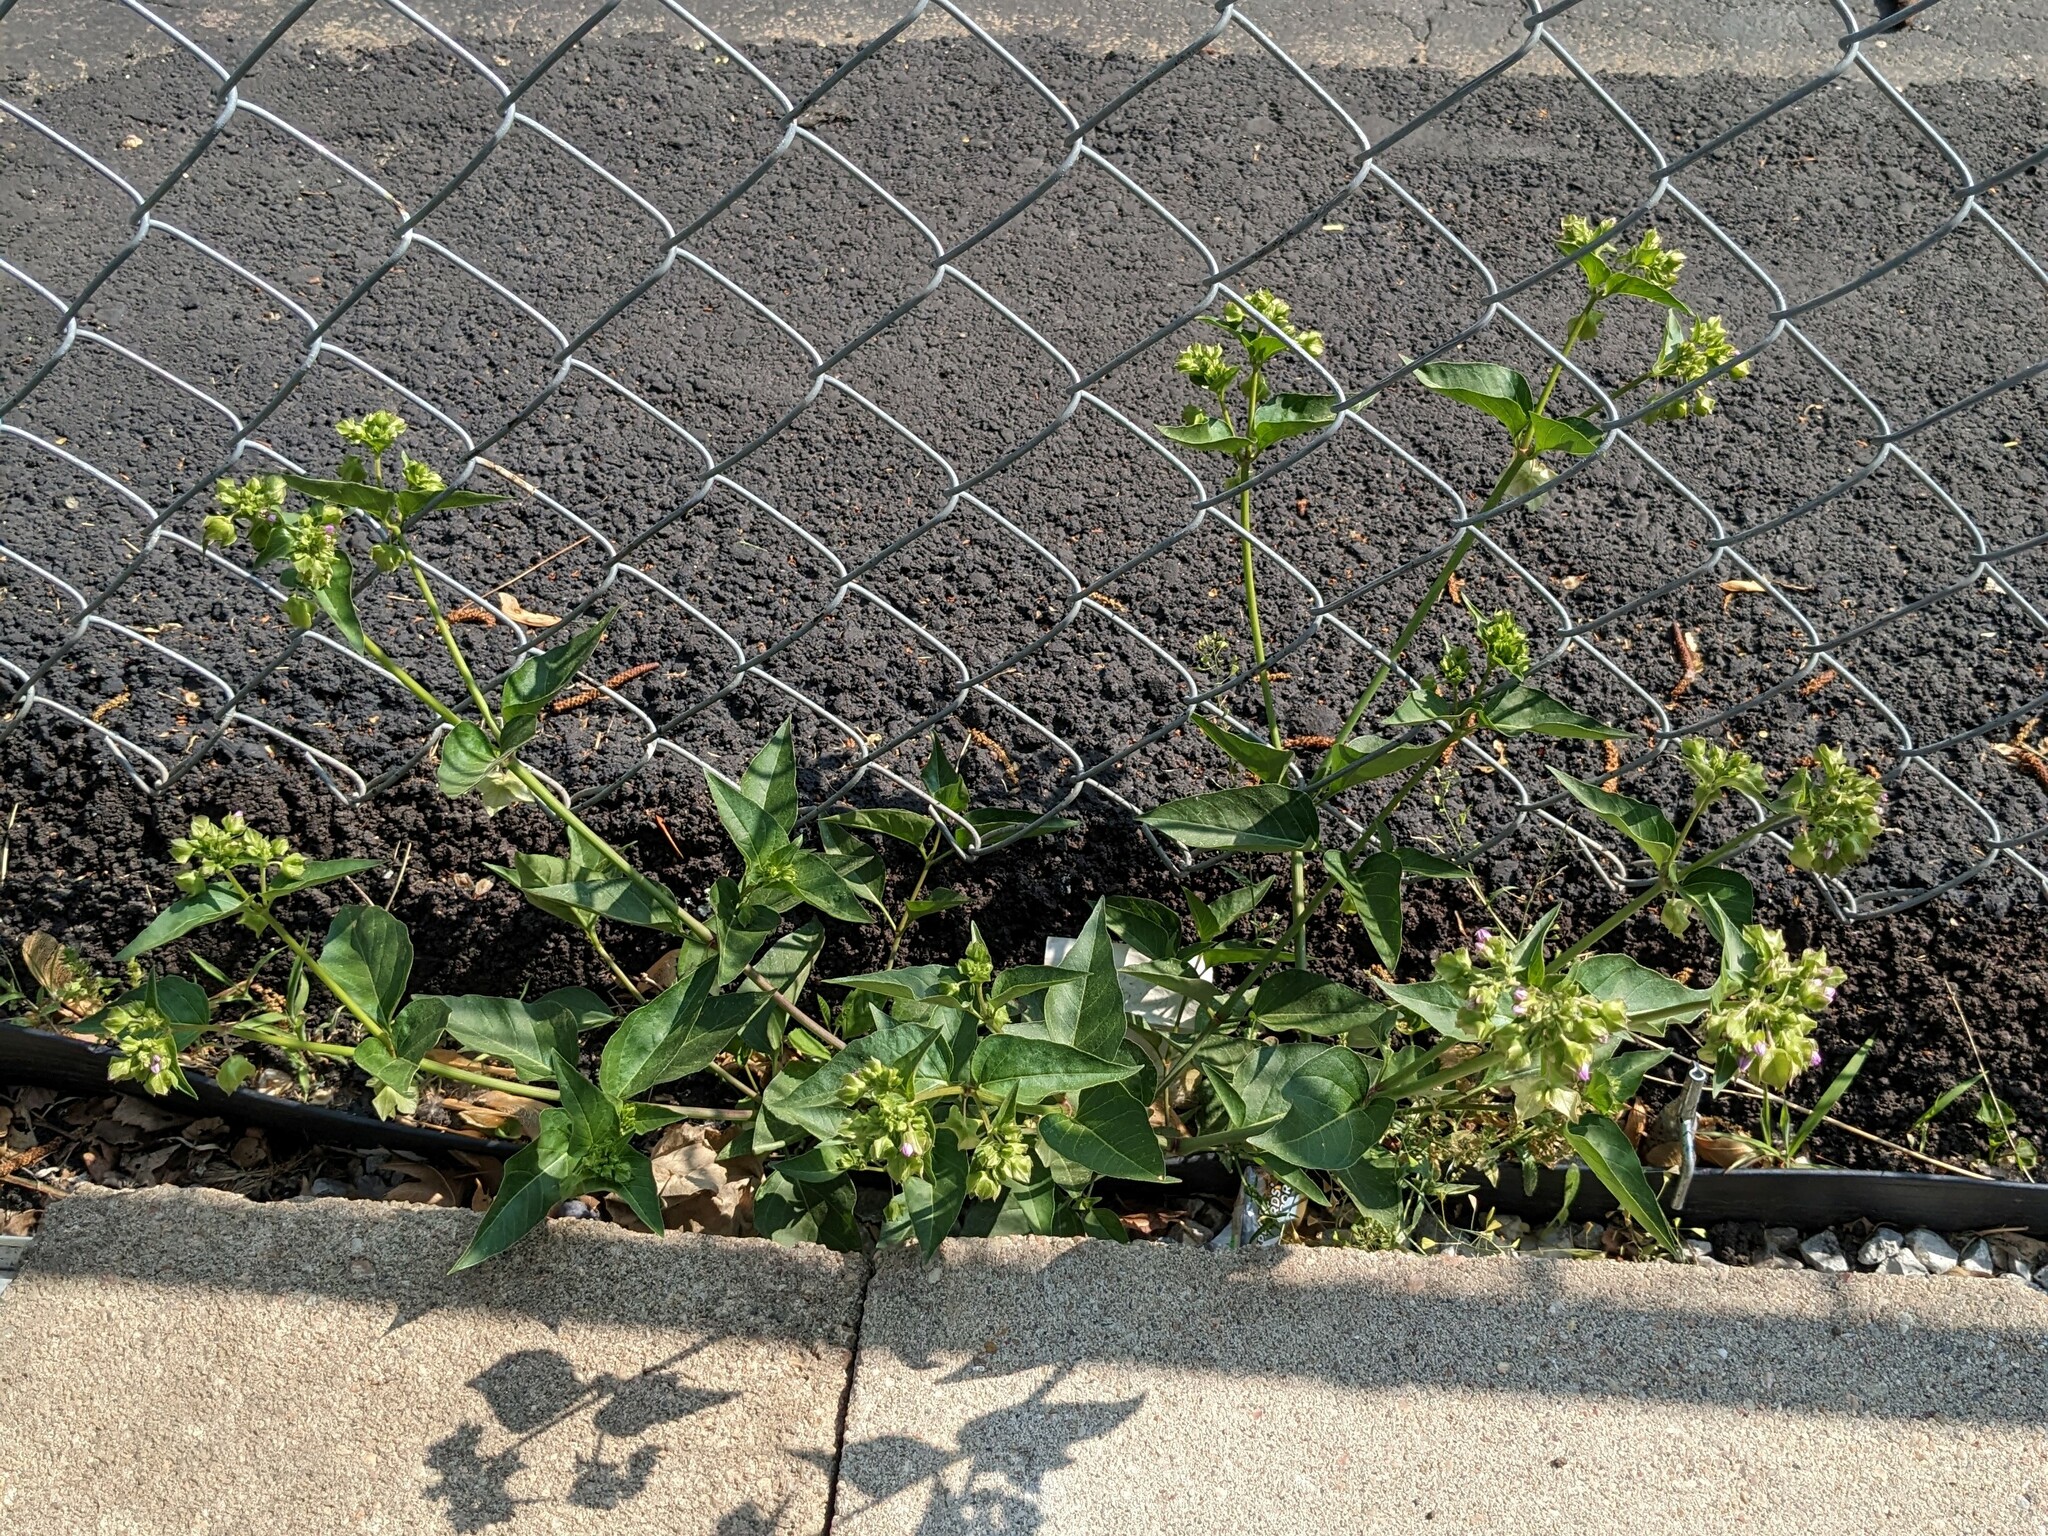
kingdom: Plantae
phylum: Tracheophyta
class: Magnoliopsida
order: Caryophyllales
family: Nyctaginaceae
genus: Mirabilis
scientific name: Mirabilis nyctaginea
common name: Umbrella wort
